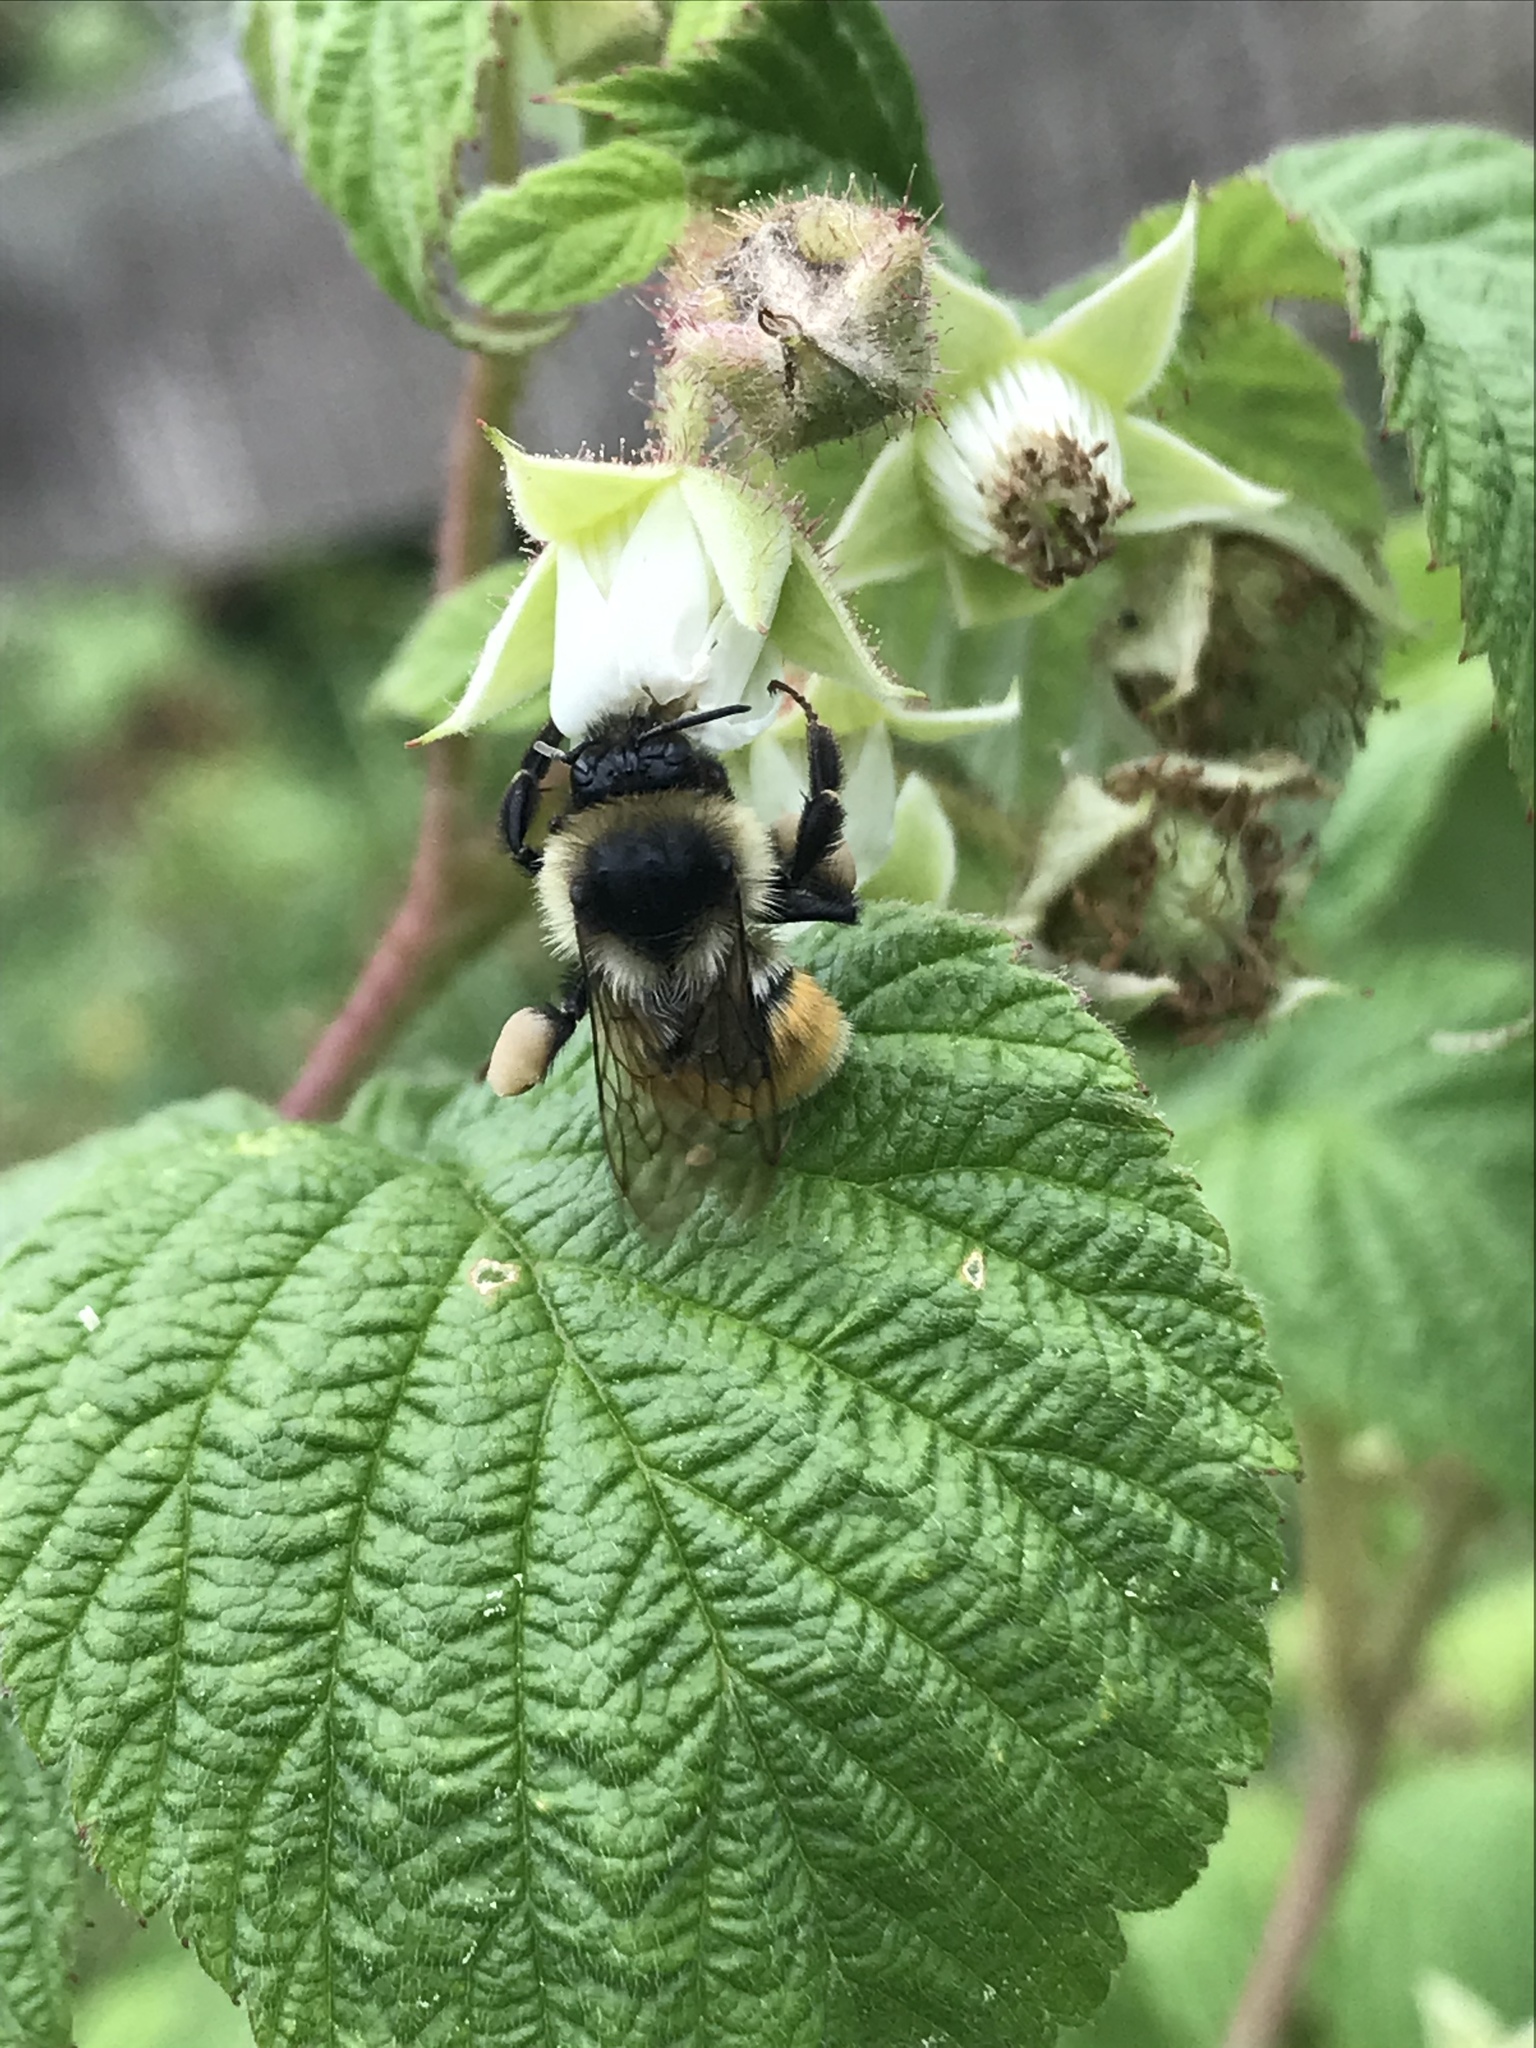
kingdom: Animalia
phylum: Arthropoda
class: Insecta
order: Hymenoptera
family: Apidae
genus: Bombus
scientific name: Bombus ternarius
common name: Tri-colored bumble bee
